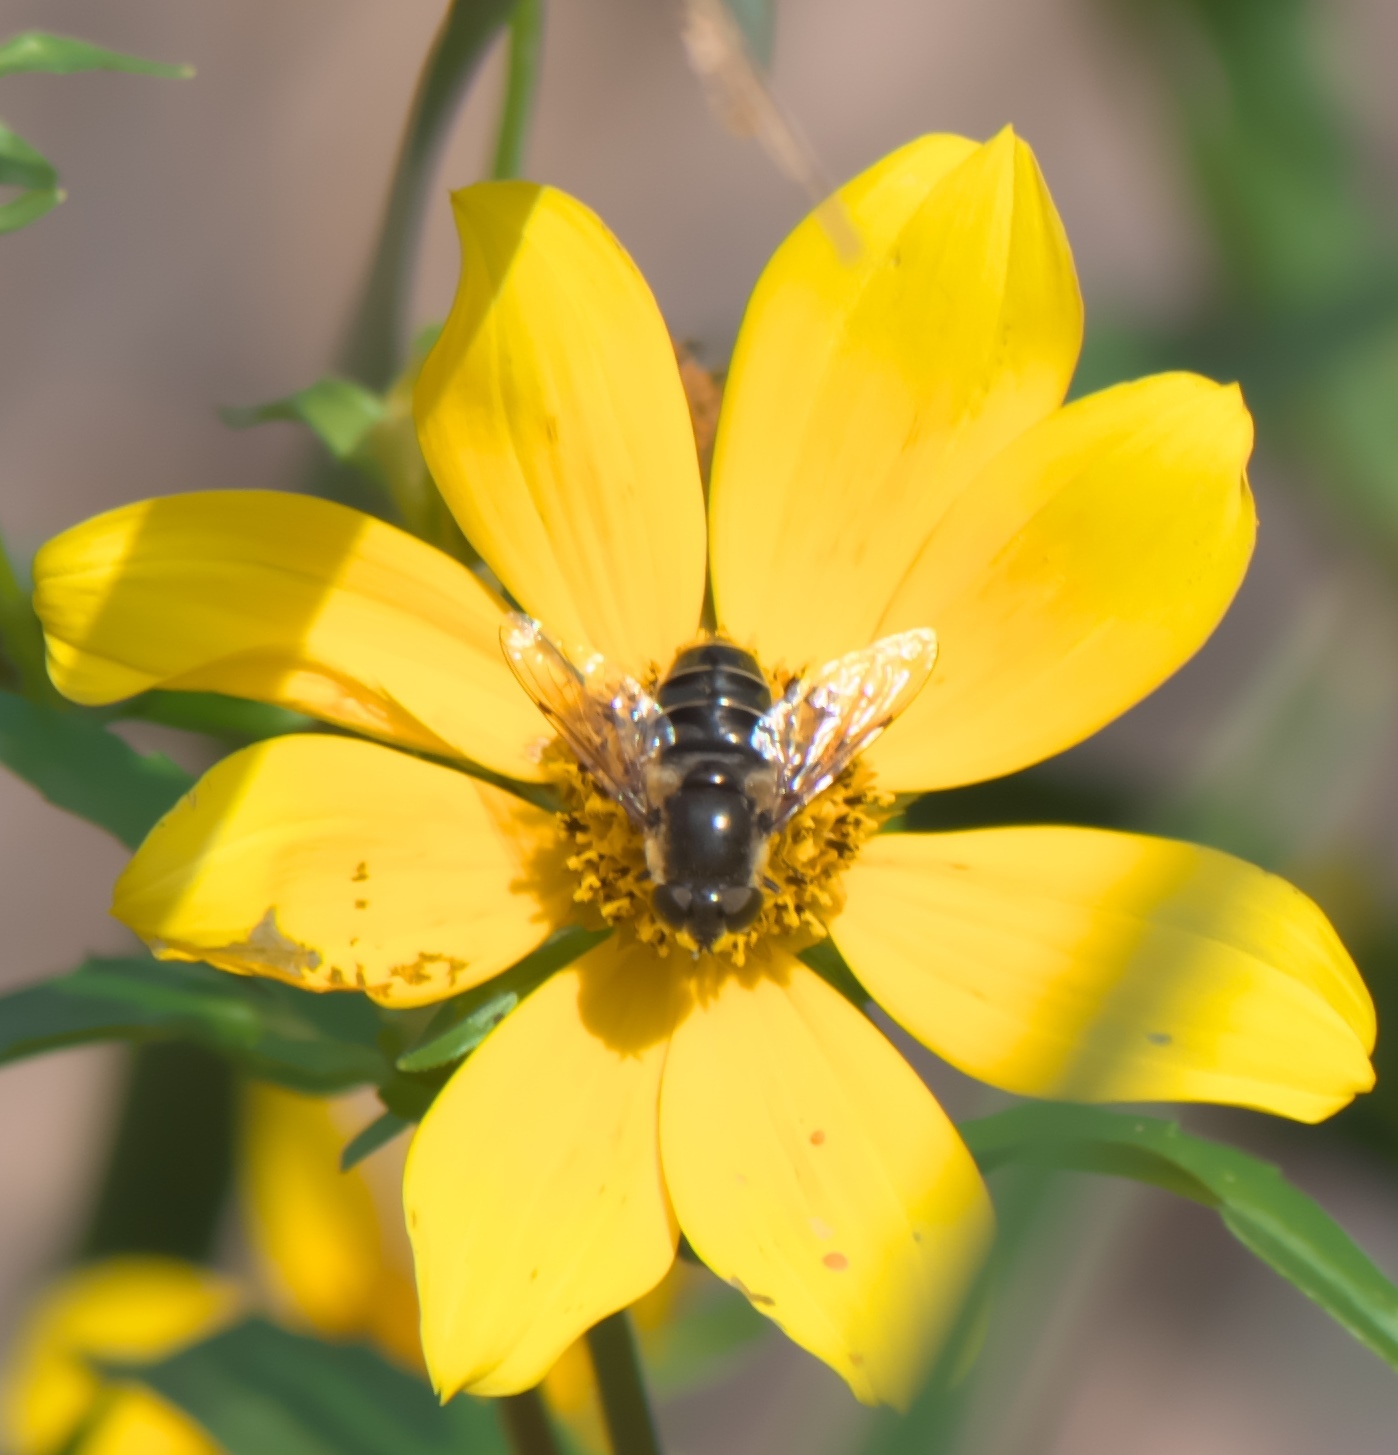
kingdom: Animalia
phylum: Arthropoda
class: Insecta
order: Diptera
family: Syrphidae
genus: Eristalis
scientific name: Eristalis dimidiata
